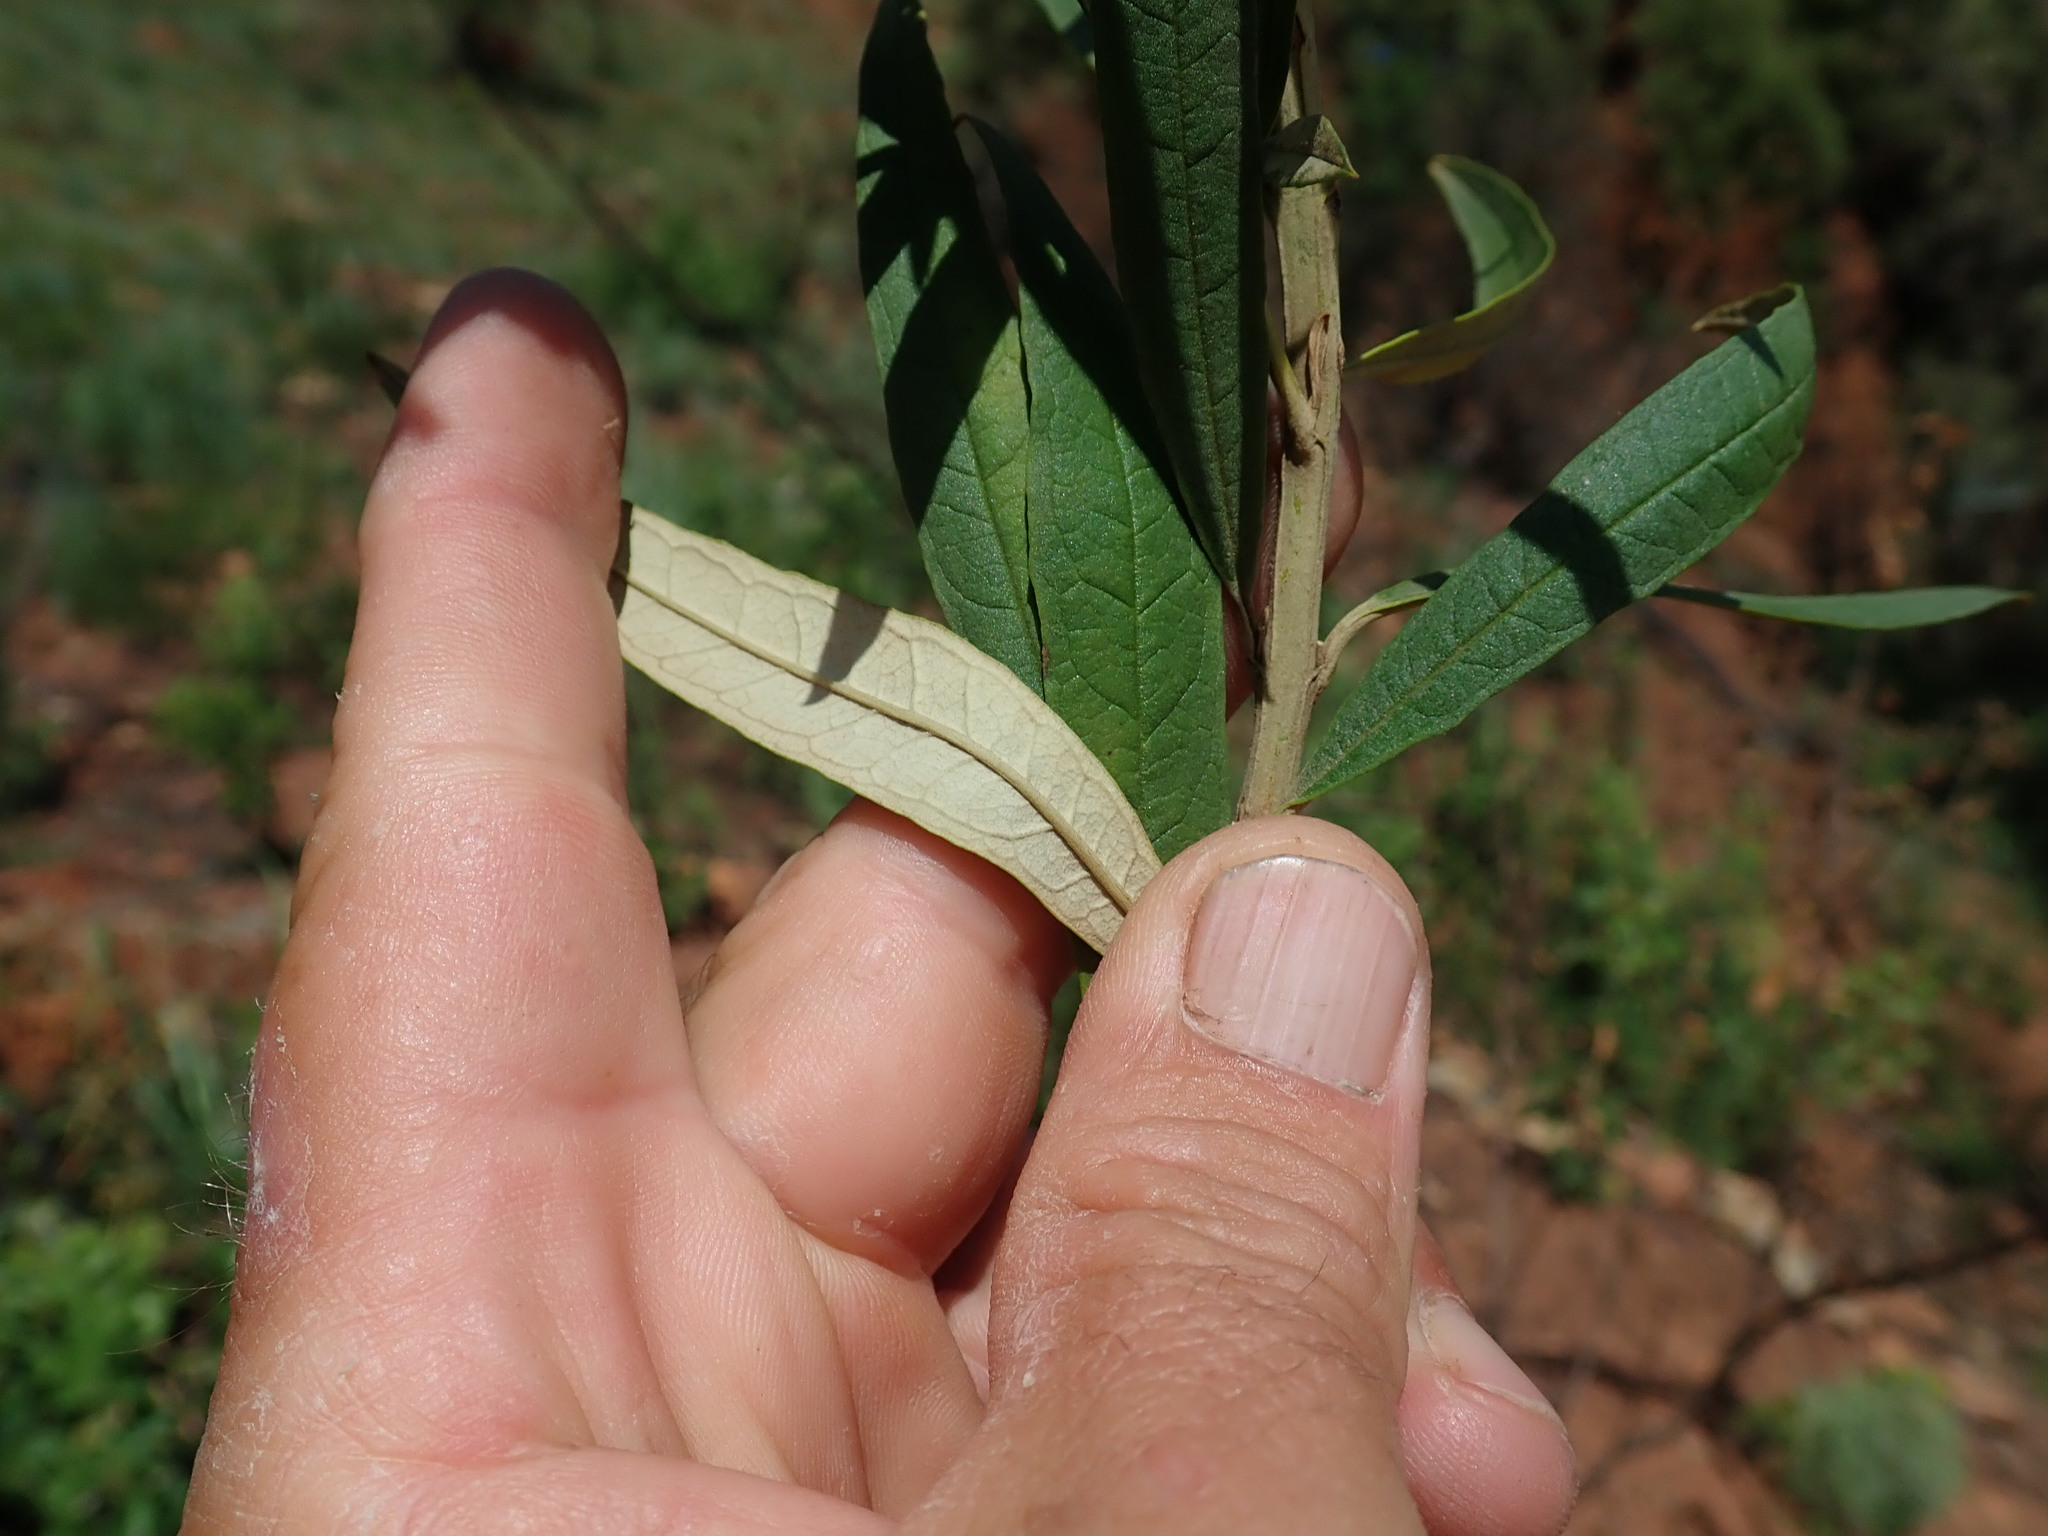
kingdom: Plantae
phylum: Tracheophyta
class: Magnoliopsida
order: Lamiales
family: Scrophulariaceae
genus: Buddleja
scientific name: Buddleja saligna
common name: False olive
